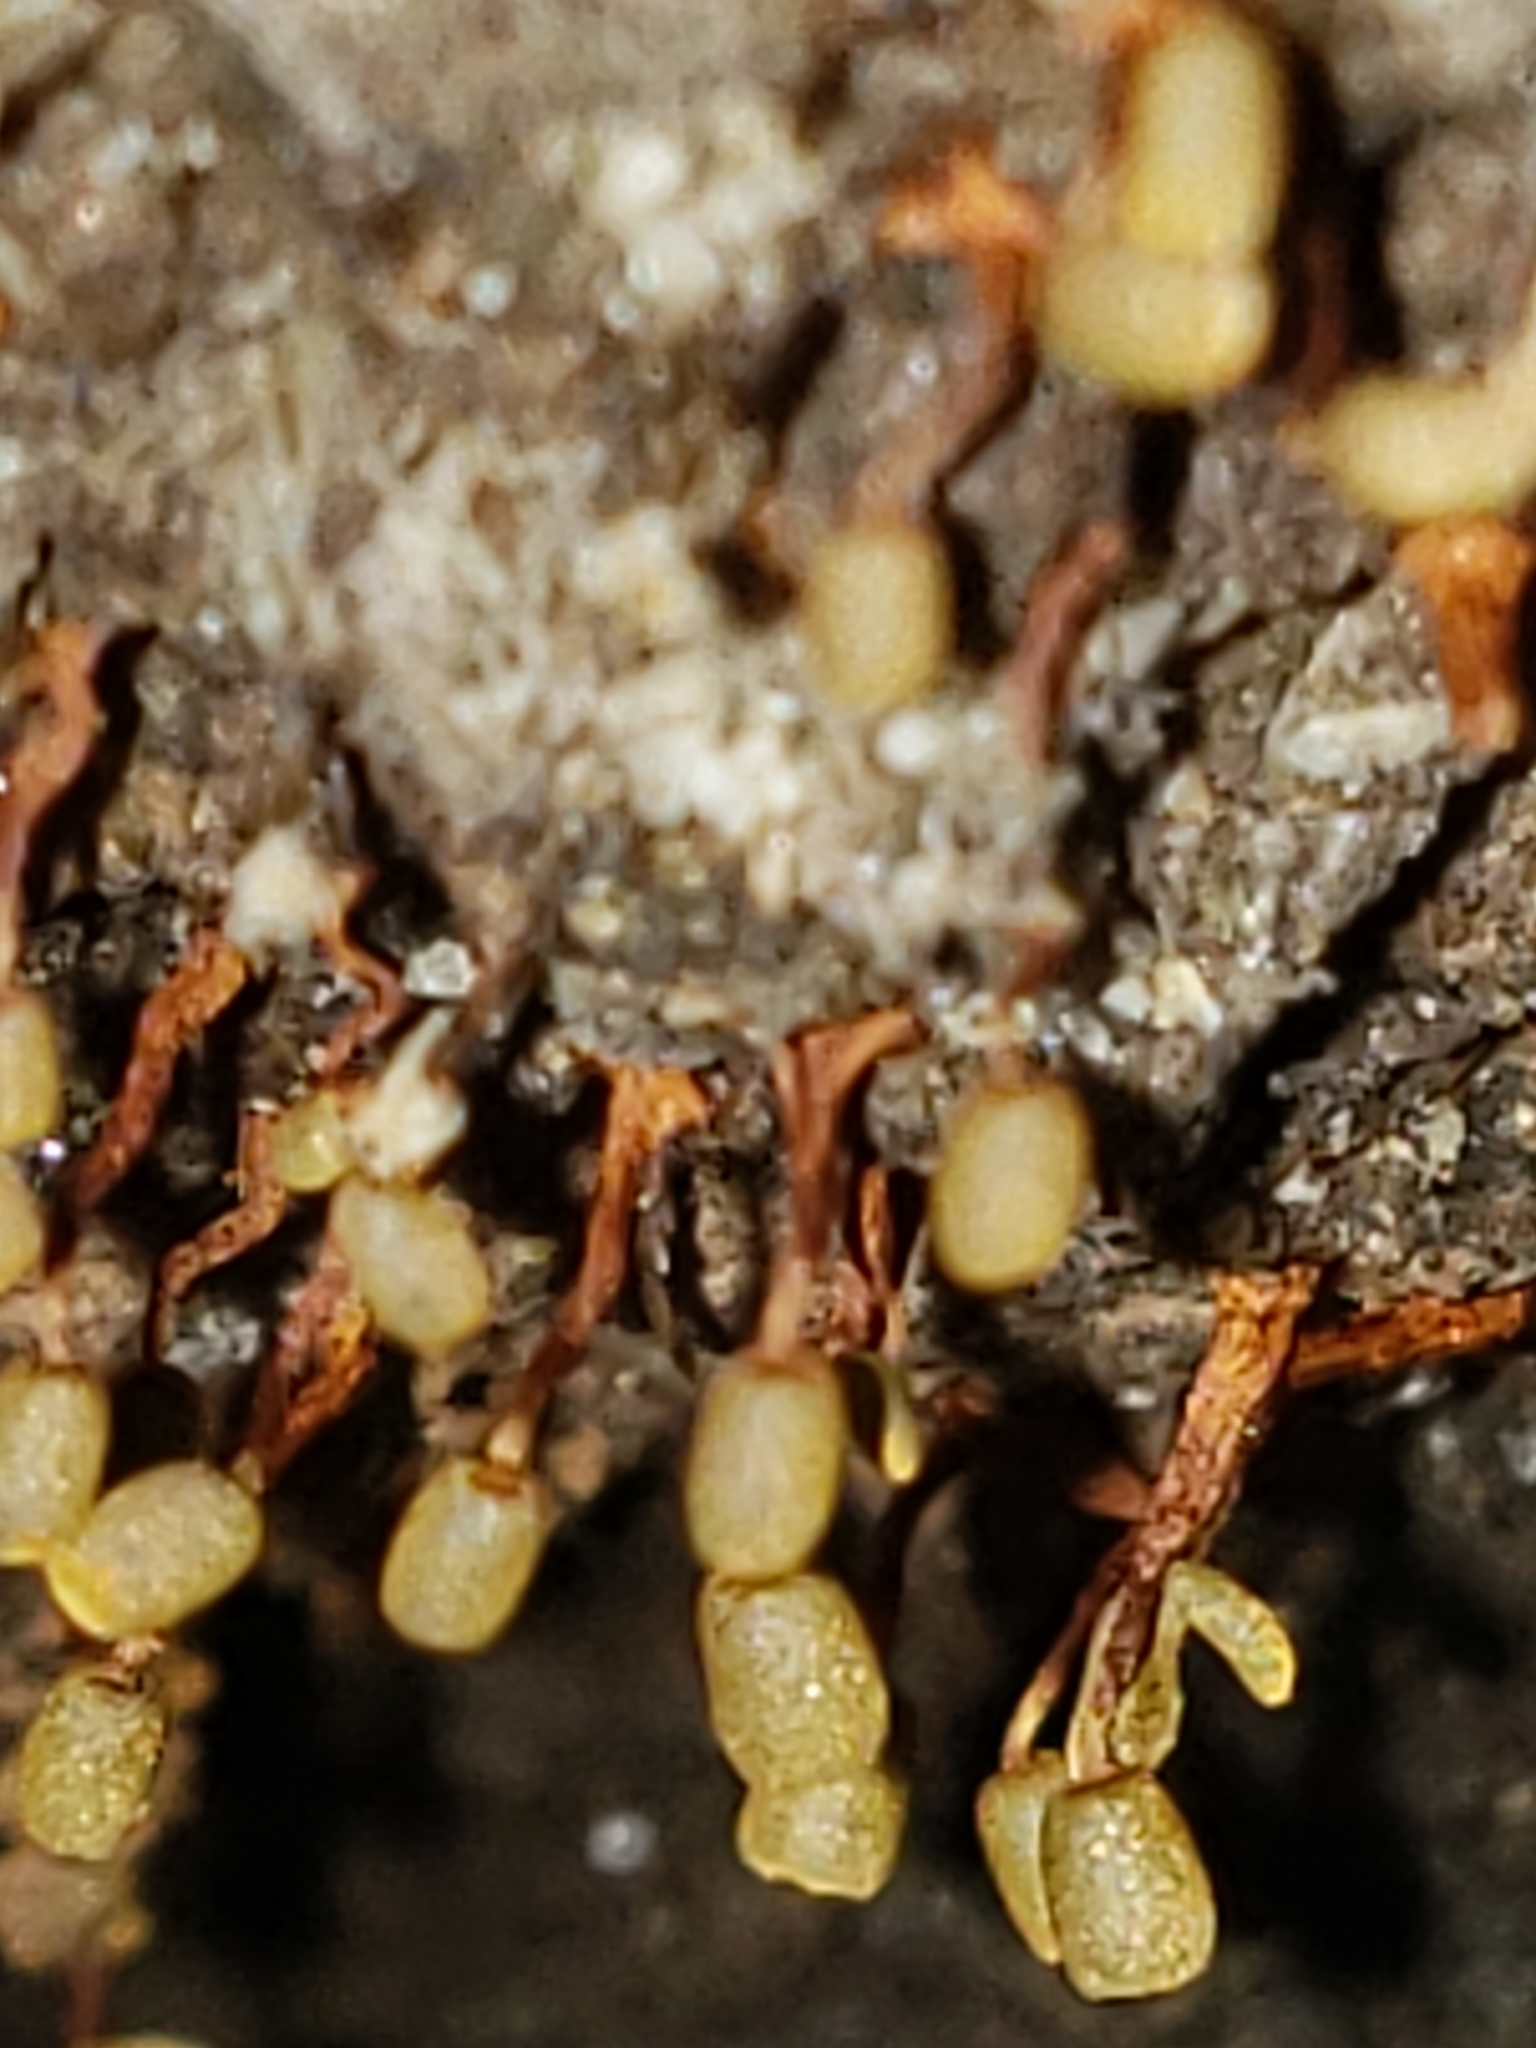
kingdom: Protozoa
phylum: Mycetozoa
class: Myxomycetes
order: Physarales
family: Physaraceae
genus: Physarella
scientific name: Physarella oblonga
